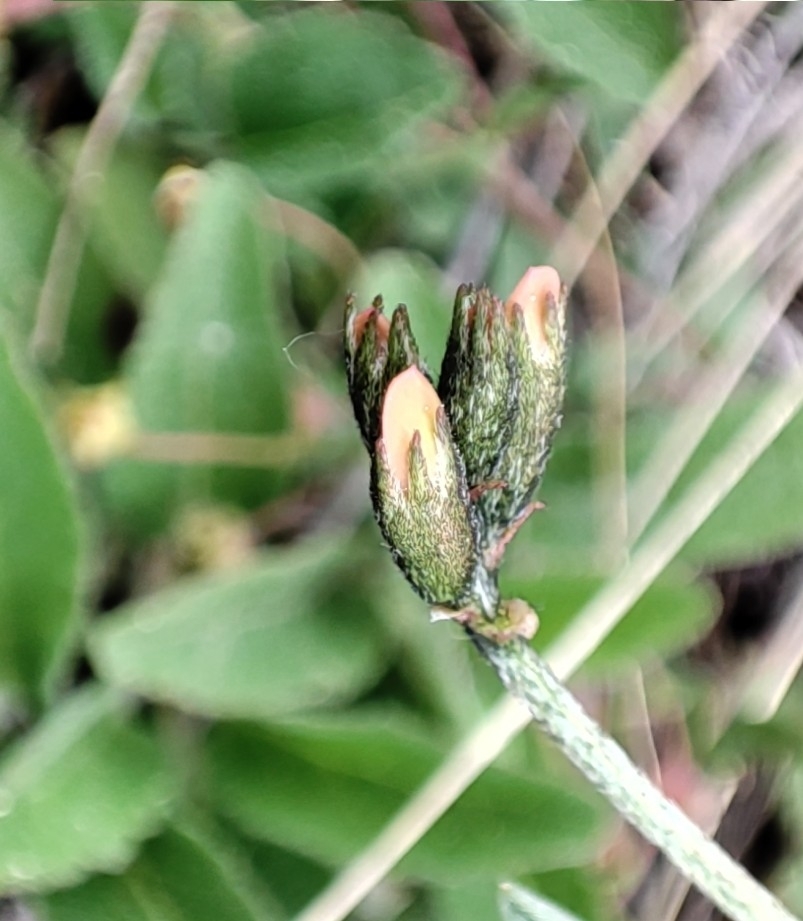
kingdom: Plantae
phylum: Tracheophyta
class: Magnoliopsida
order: Fabales
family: Fabaceae
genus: Astragalus
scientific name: Astragalus neokarelinianus
